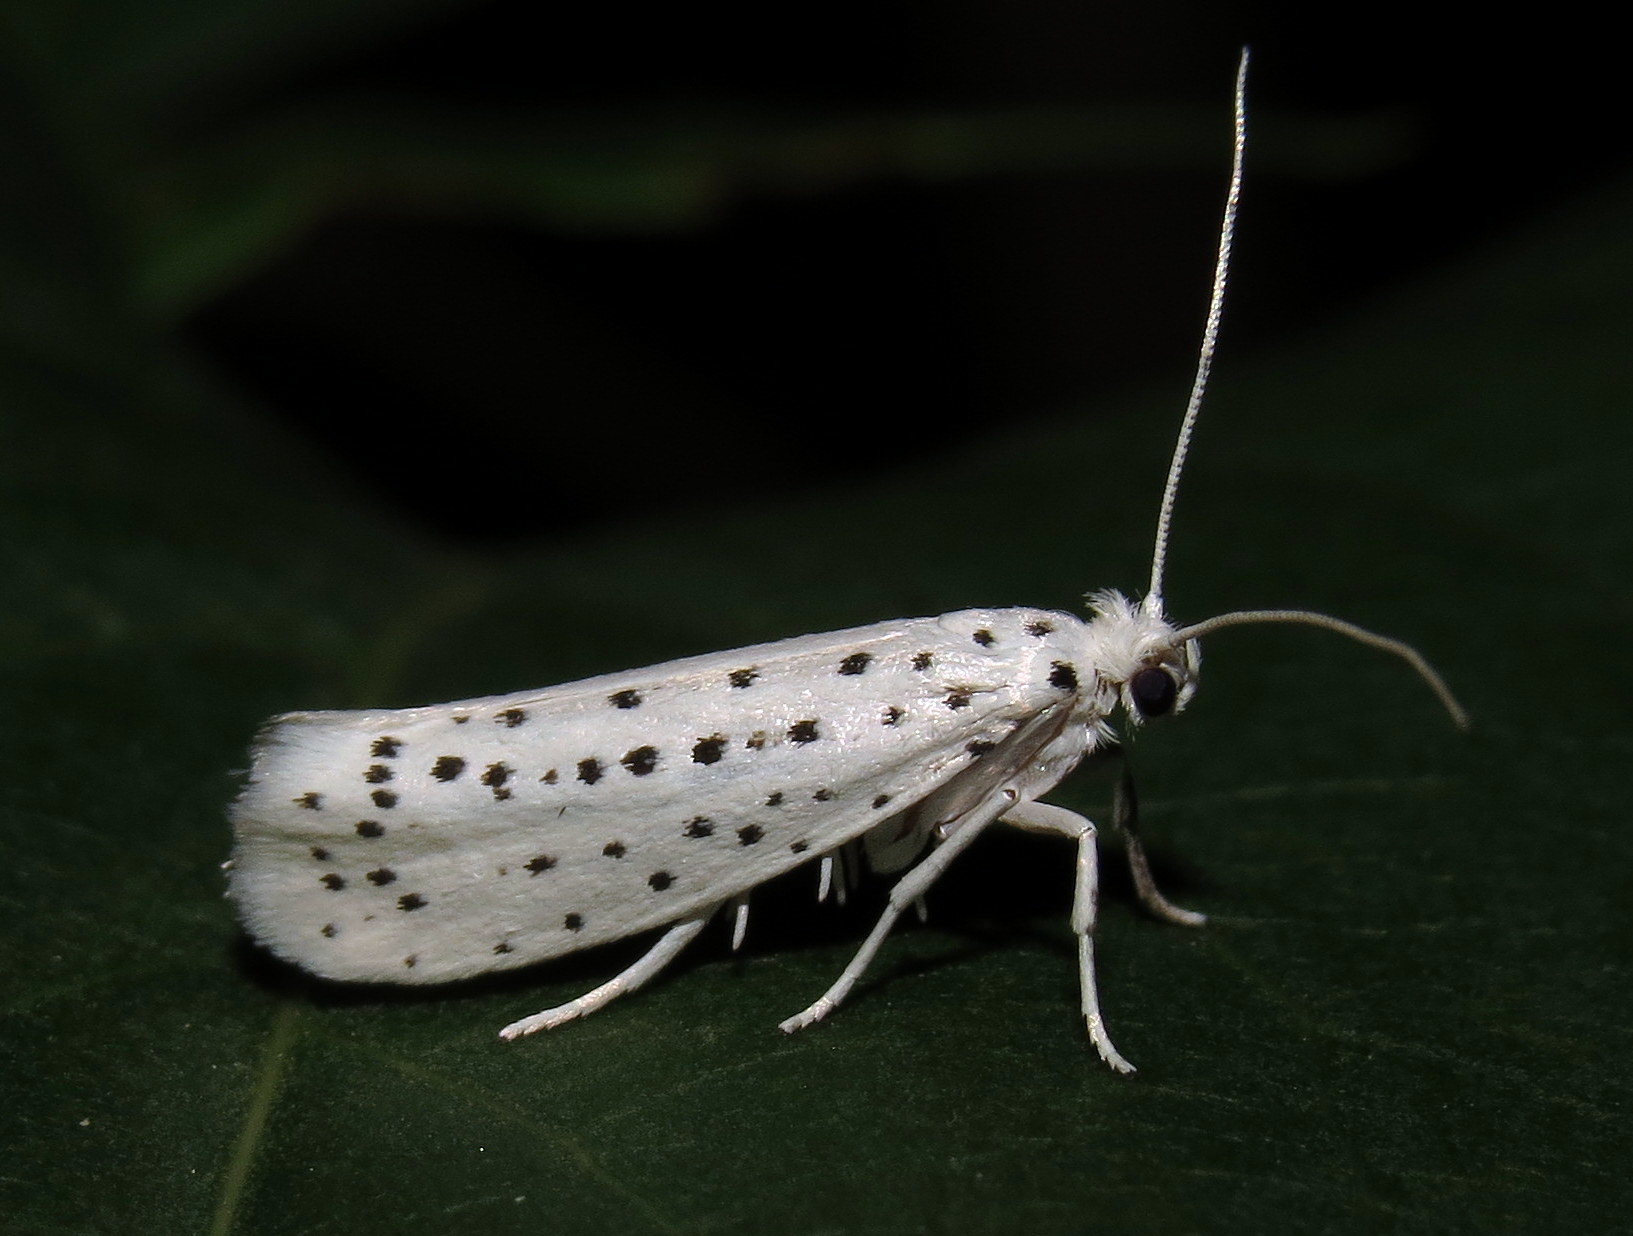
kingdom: Animalia
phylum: Arthropoda
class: Insecta
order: Lepidoptera
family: Yponomeutidae
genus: Yponomeuta
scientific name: Yponomeuta multipunctella
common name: American ermine moth
